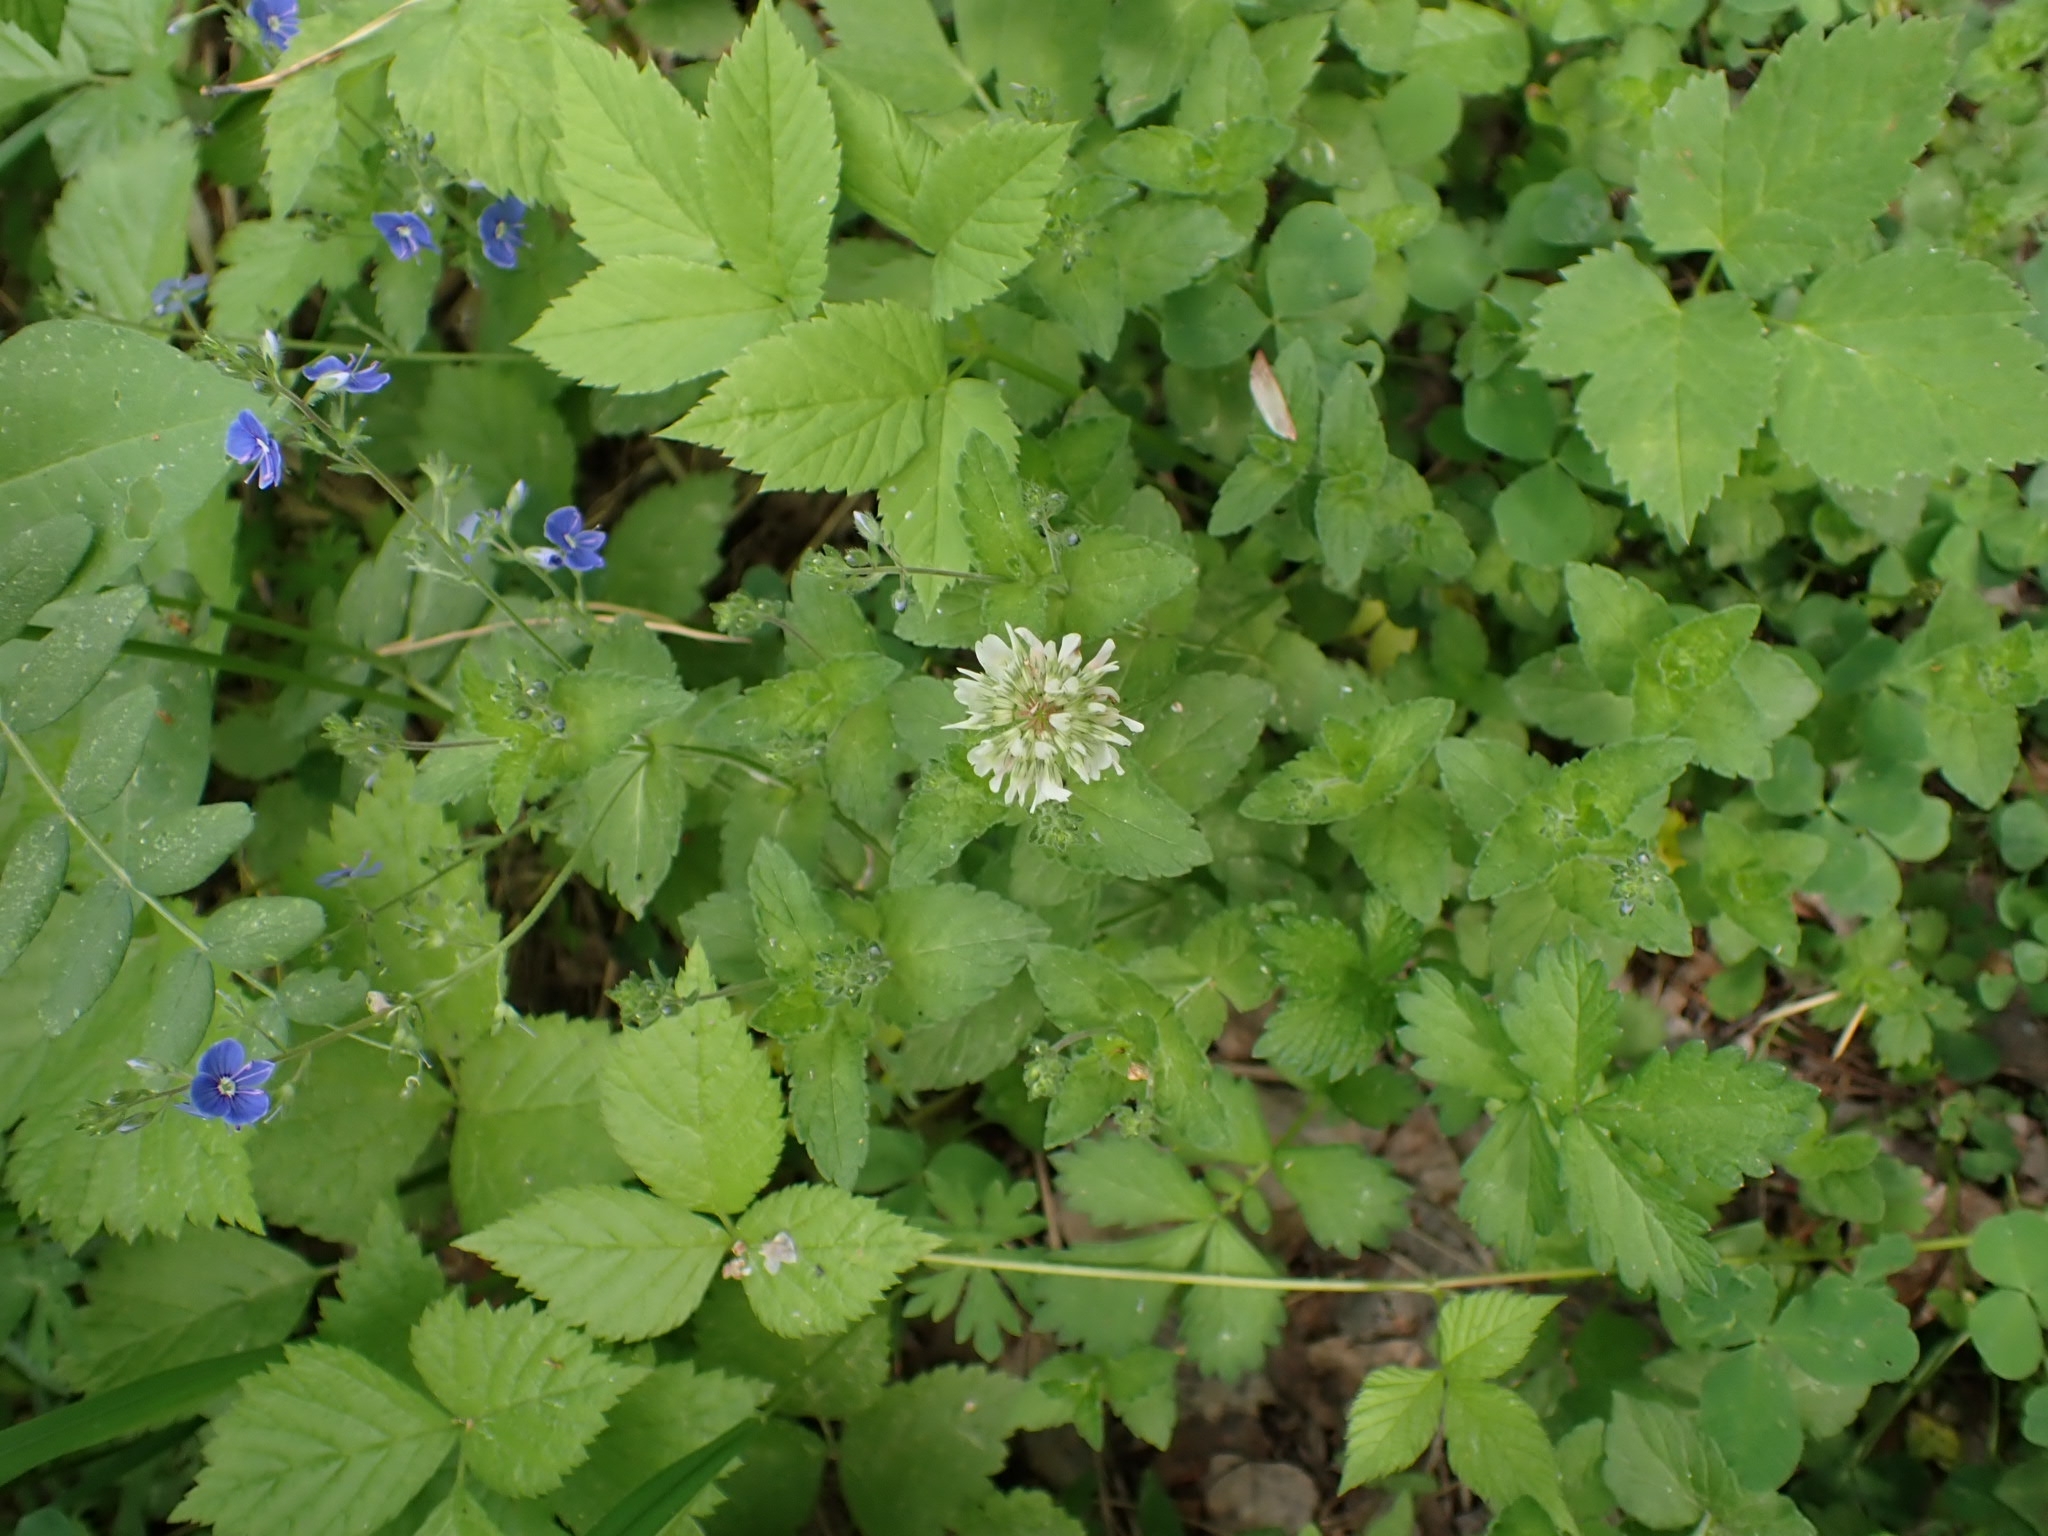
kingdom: Plantae
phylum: Tracheophyta
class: Magnoliopsida
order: Fabales
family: Fabaceae
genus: Trifolium
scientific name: Trifolium repens
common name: White clover
